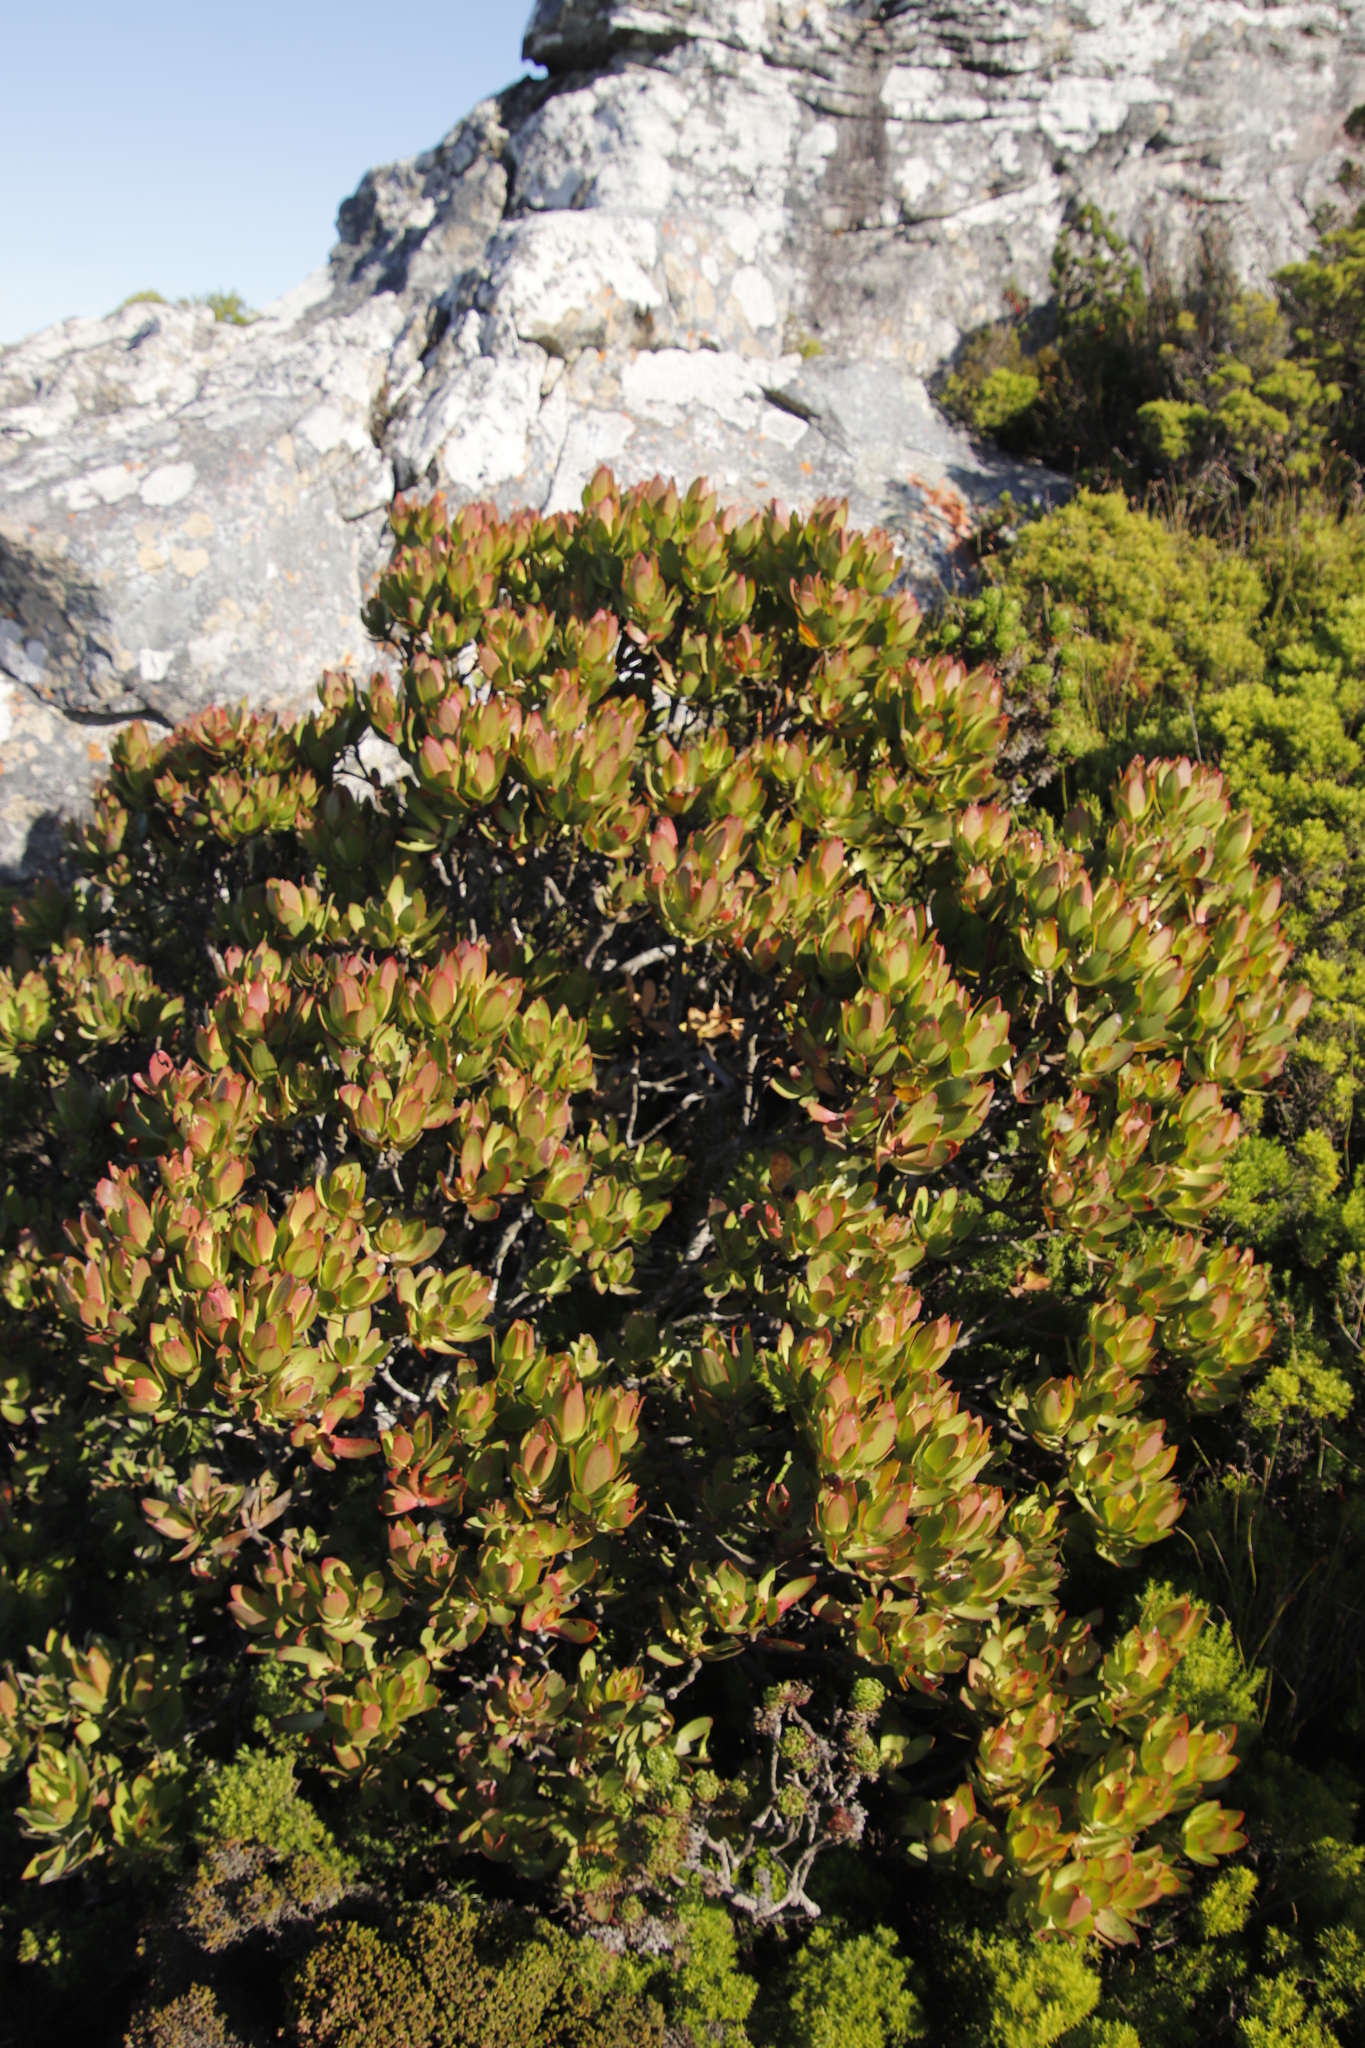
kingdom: Plantae
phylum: Tracheophyta
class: Magnoliopsida
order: Proteales
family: Proteaceae
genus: Leucadendron
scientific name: Leucadendron gandogeri
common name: Broad-leaf conebush
